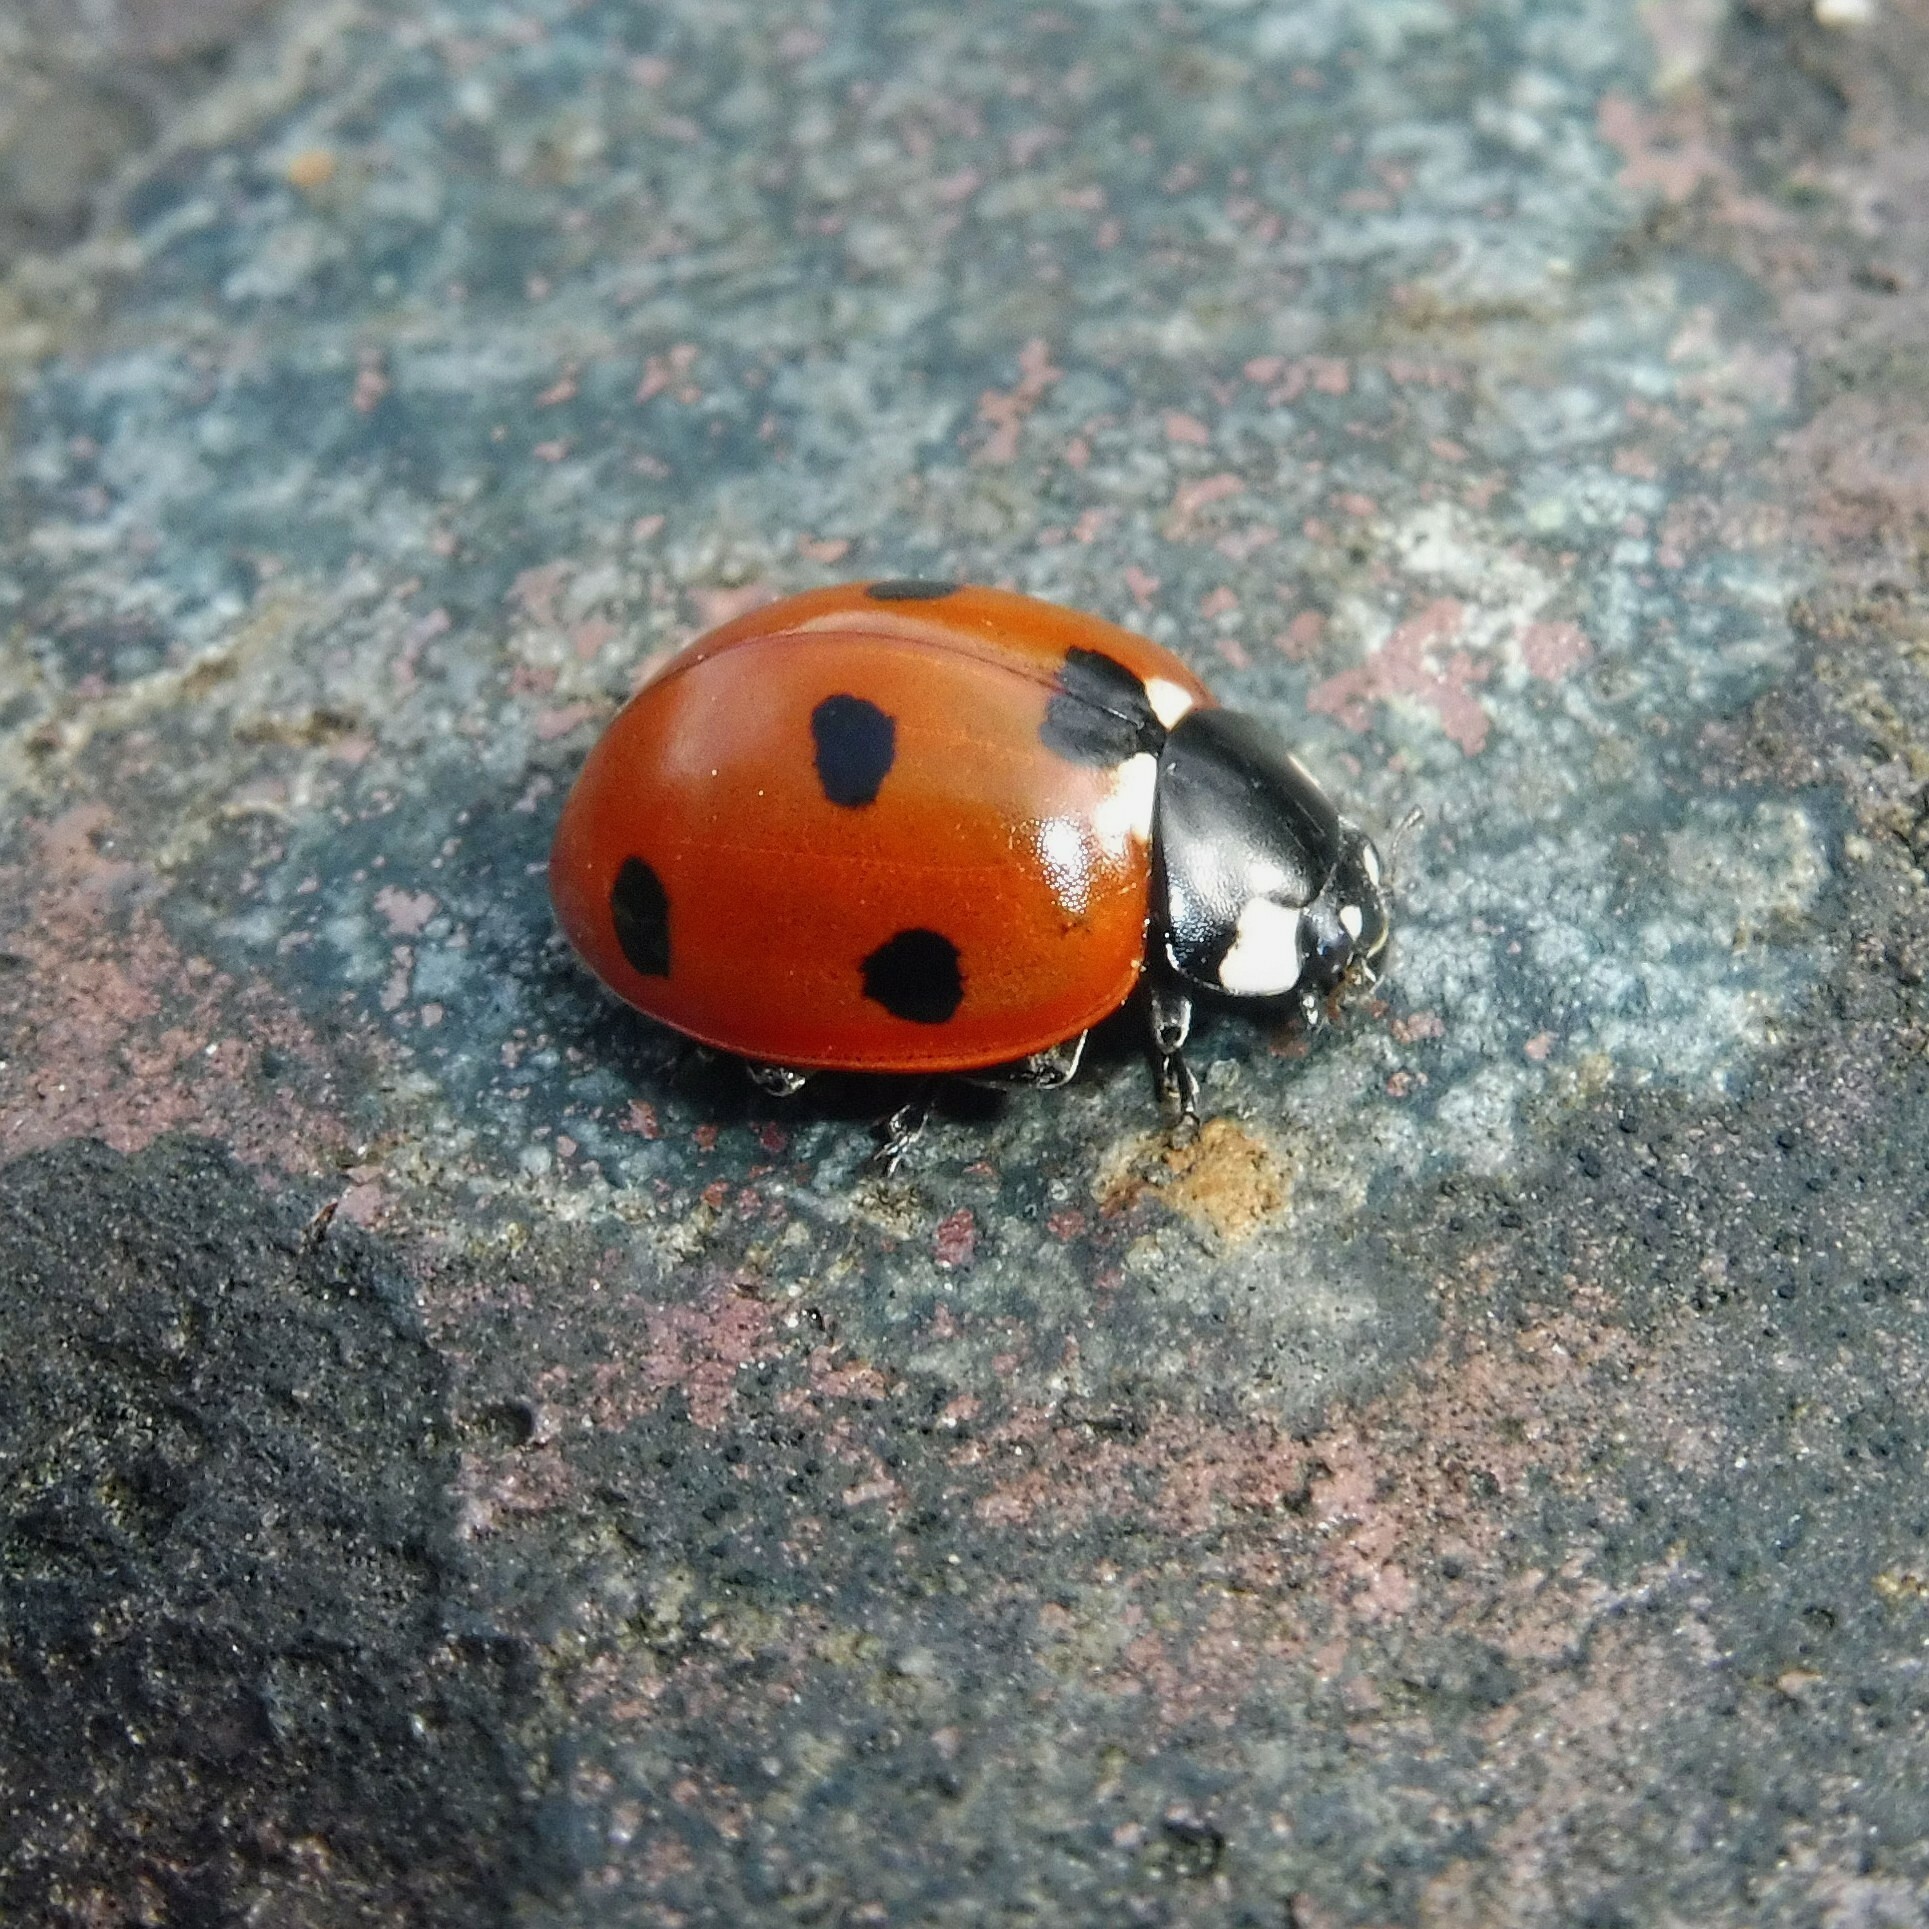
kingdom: Animalia
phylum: Arthropoda
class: Insecta
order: Coleoptera
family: Coccinellidae
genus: Coccinella
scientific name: Coccinella septempunctata
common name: Sevenspotted lady beetle
